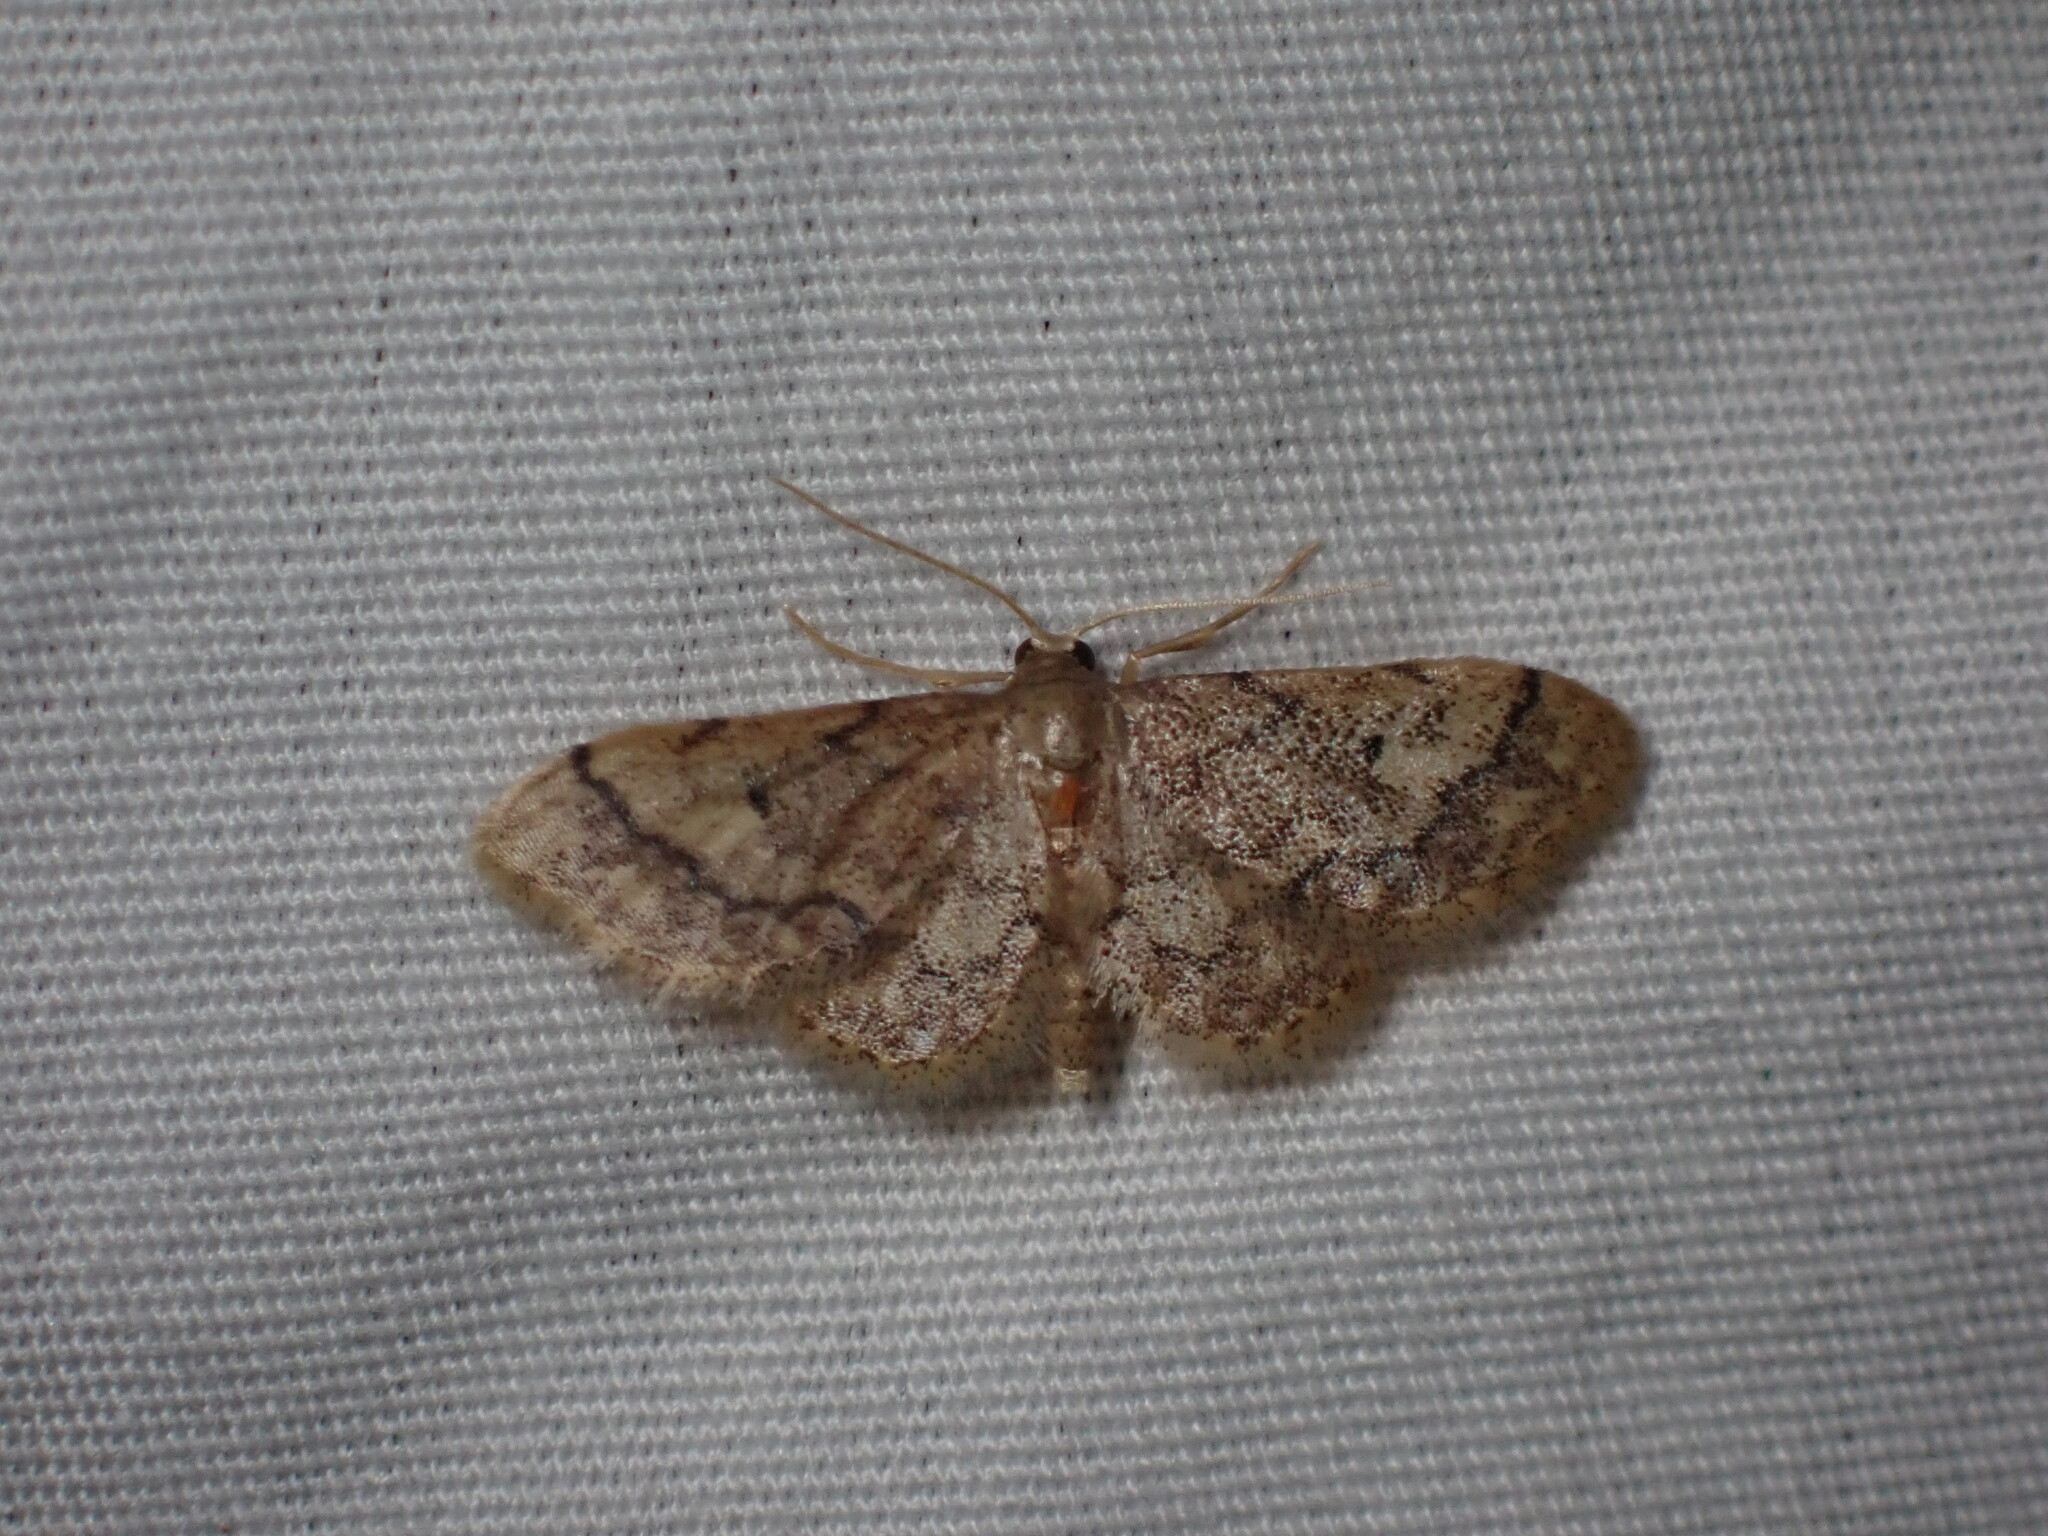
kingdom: Animalia
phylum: Arthropoda
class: Insecta
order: Lepidoptera
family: Geometridae
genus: Idaea
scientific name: Idaea celtima
